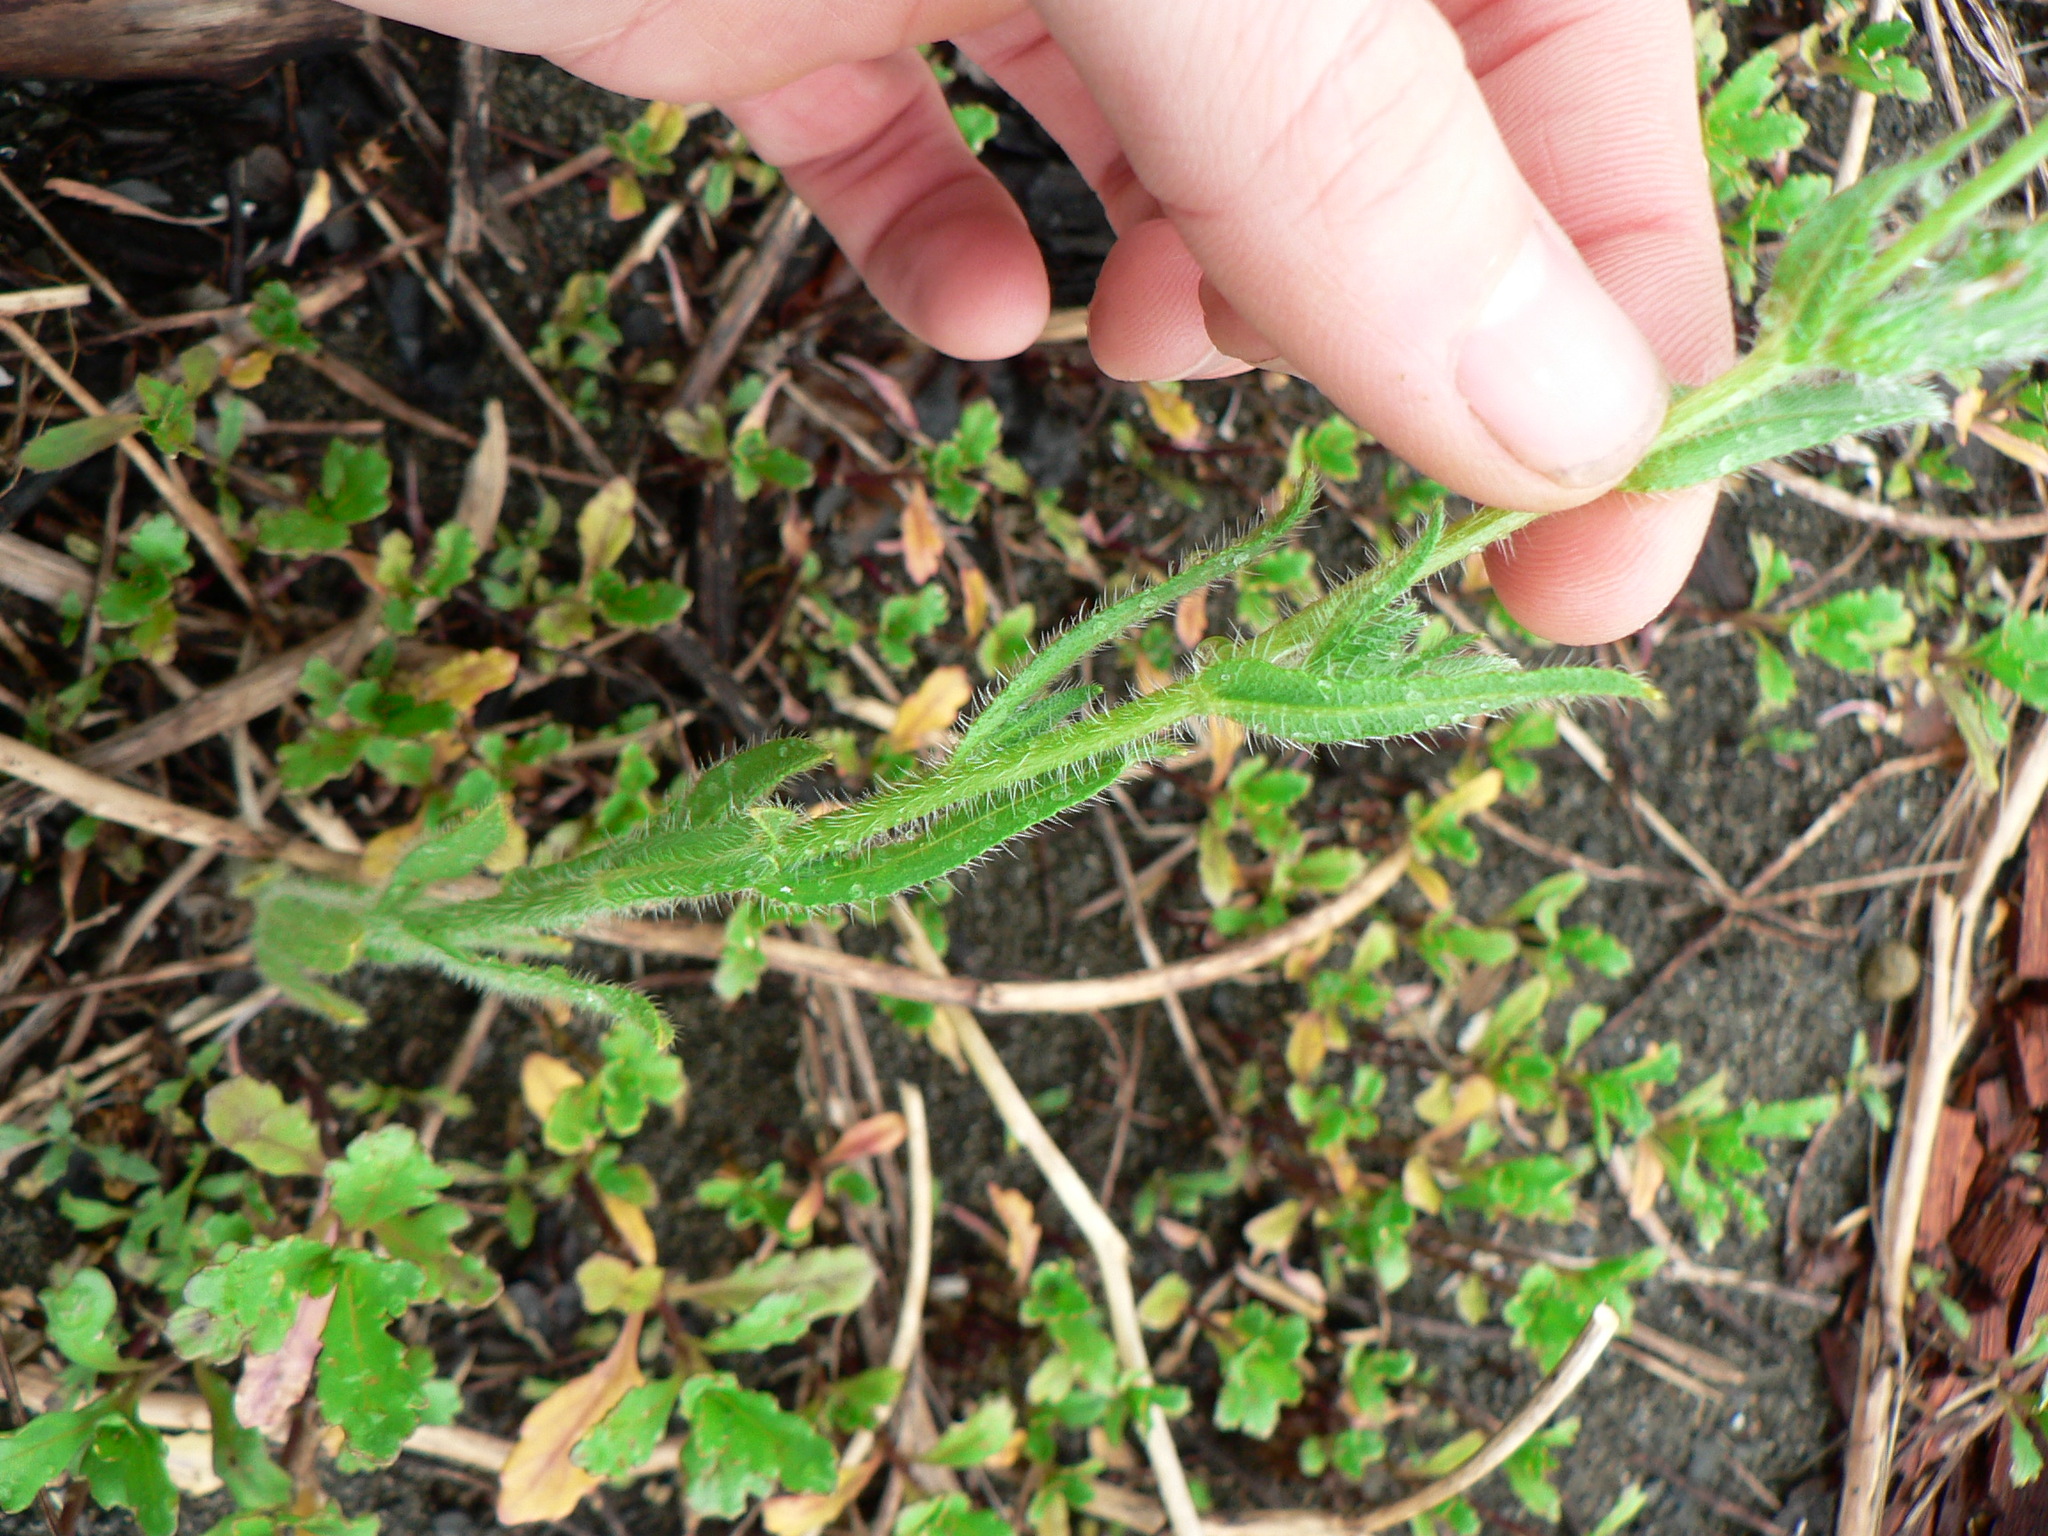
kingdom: Plantae
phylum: Tracheophyta
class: Magnoliopsida
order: Boraginales
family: Boraginaceae
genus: Amsinckia
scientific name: Amsinckia menziesii
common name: Menzies' fiddleneck
